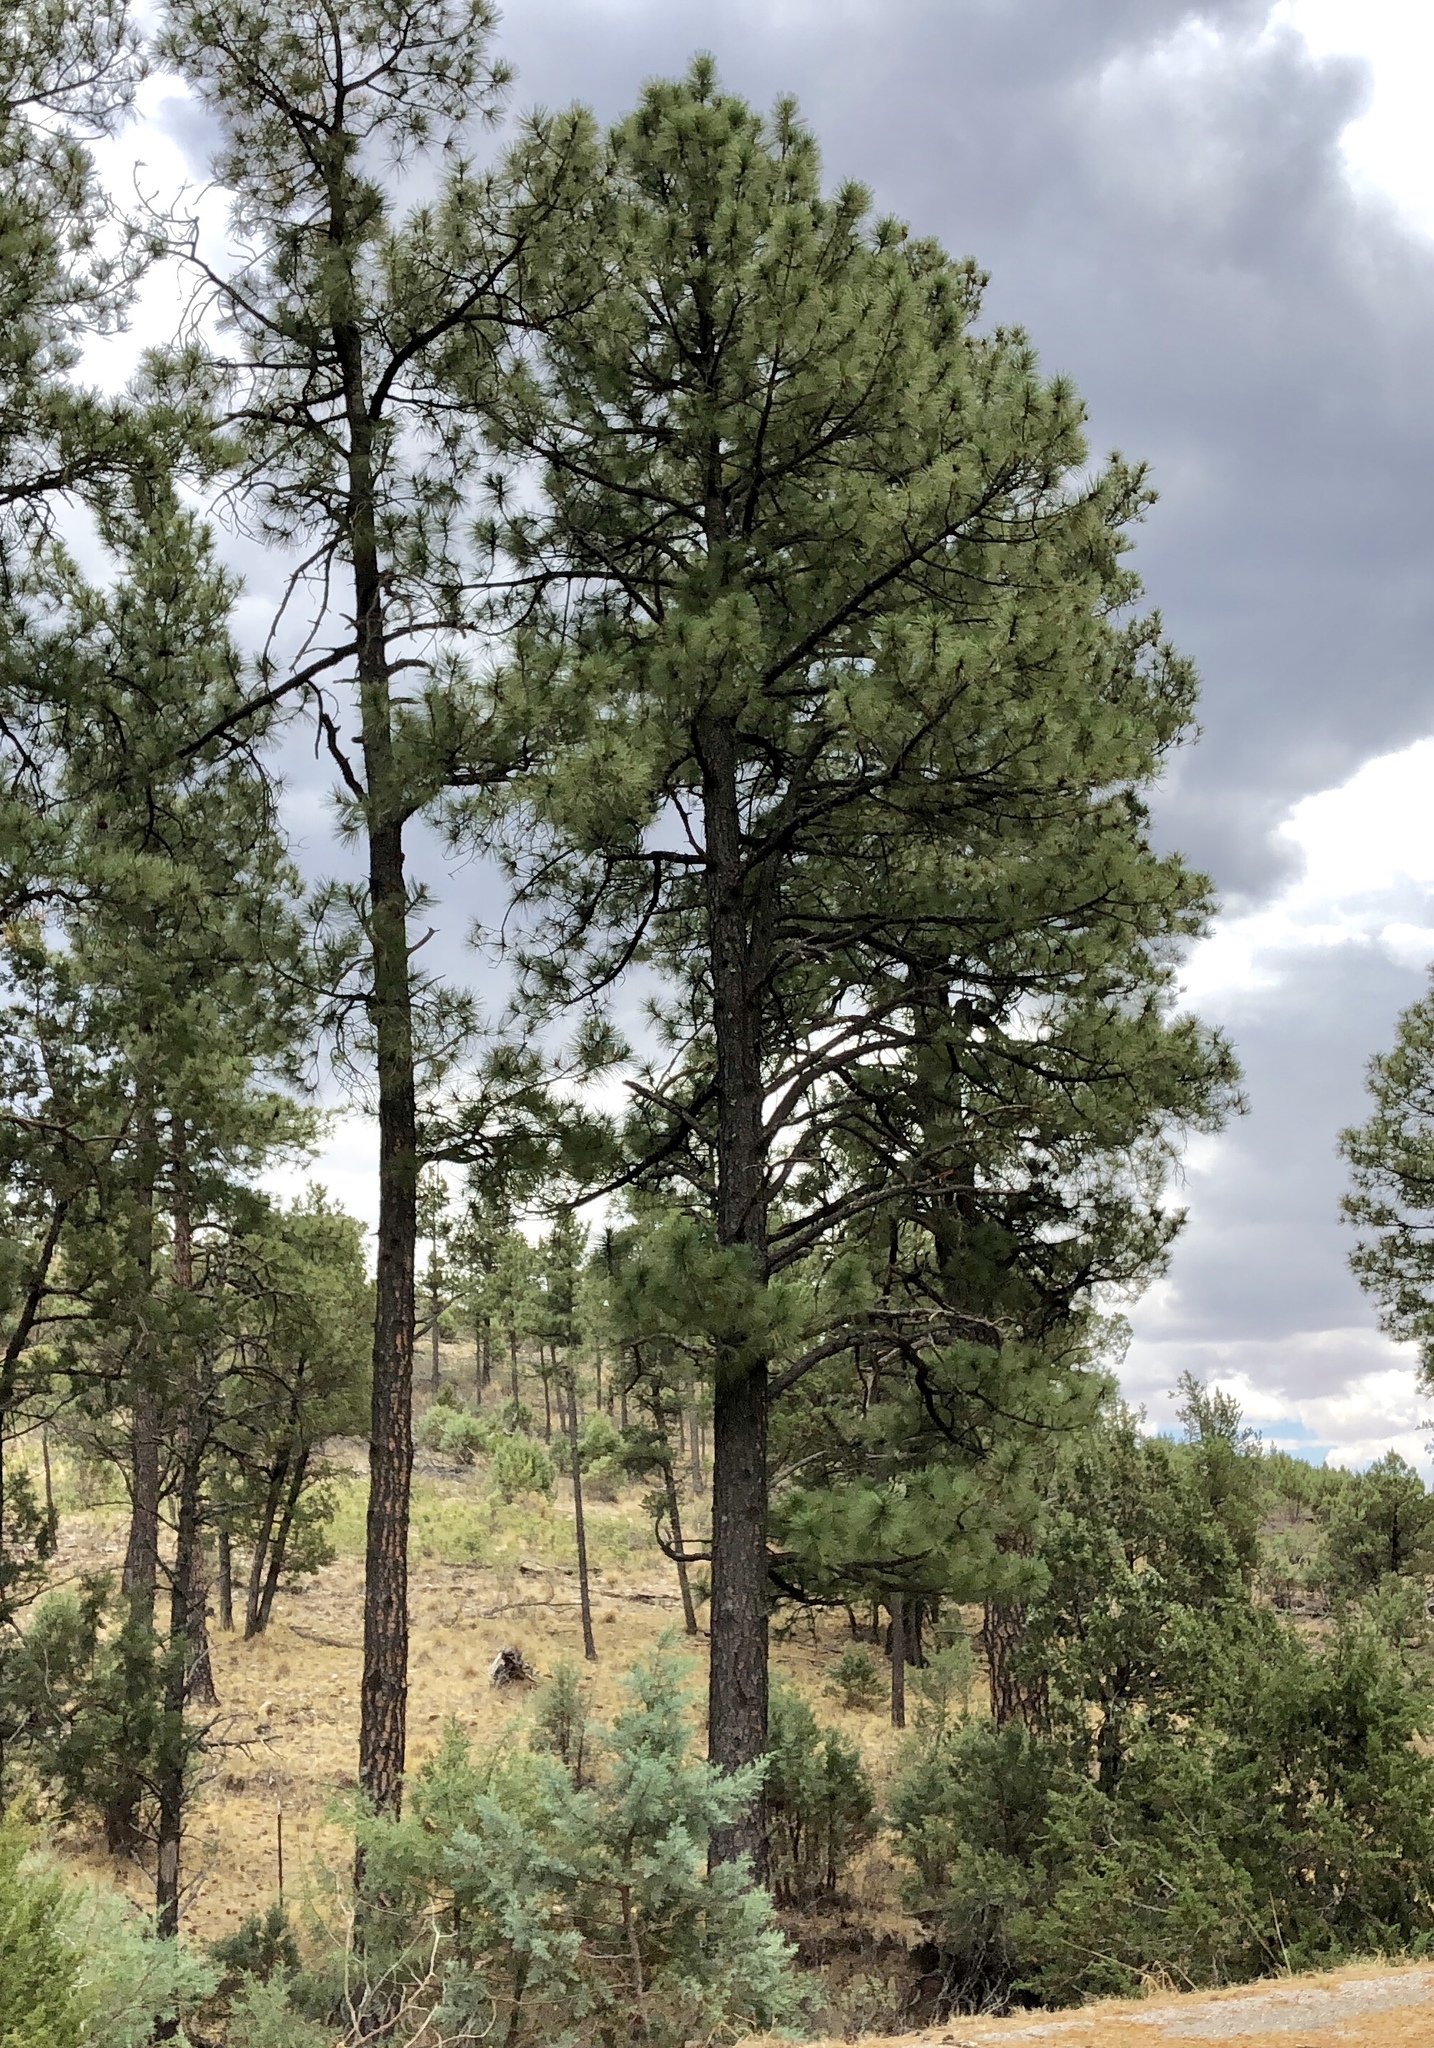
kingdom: Plantae
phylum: Tracheophyta
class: Pinopsida
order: Pinales
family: Pinaceae
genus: Pinus
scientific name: Pinus ponderosa
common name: Western yellow-pine
